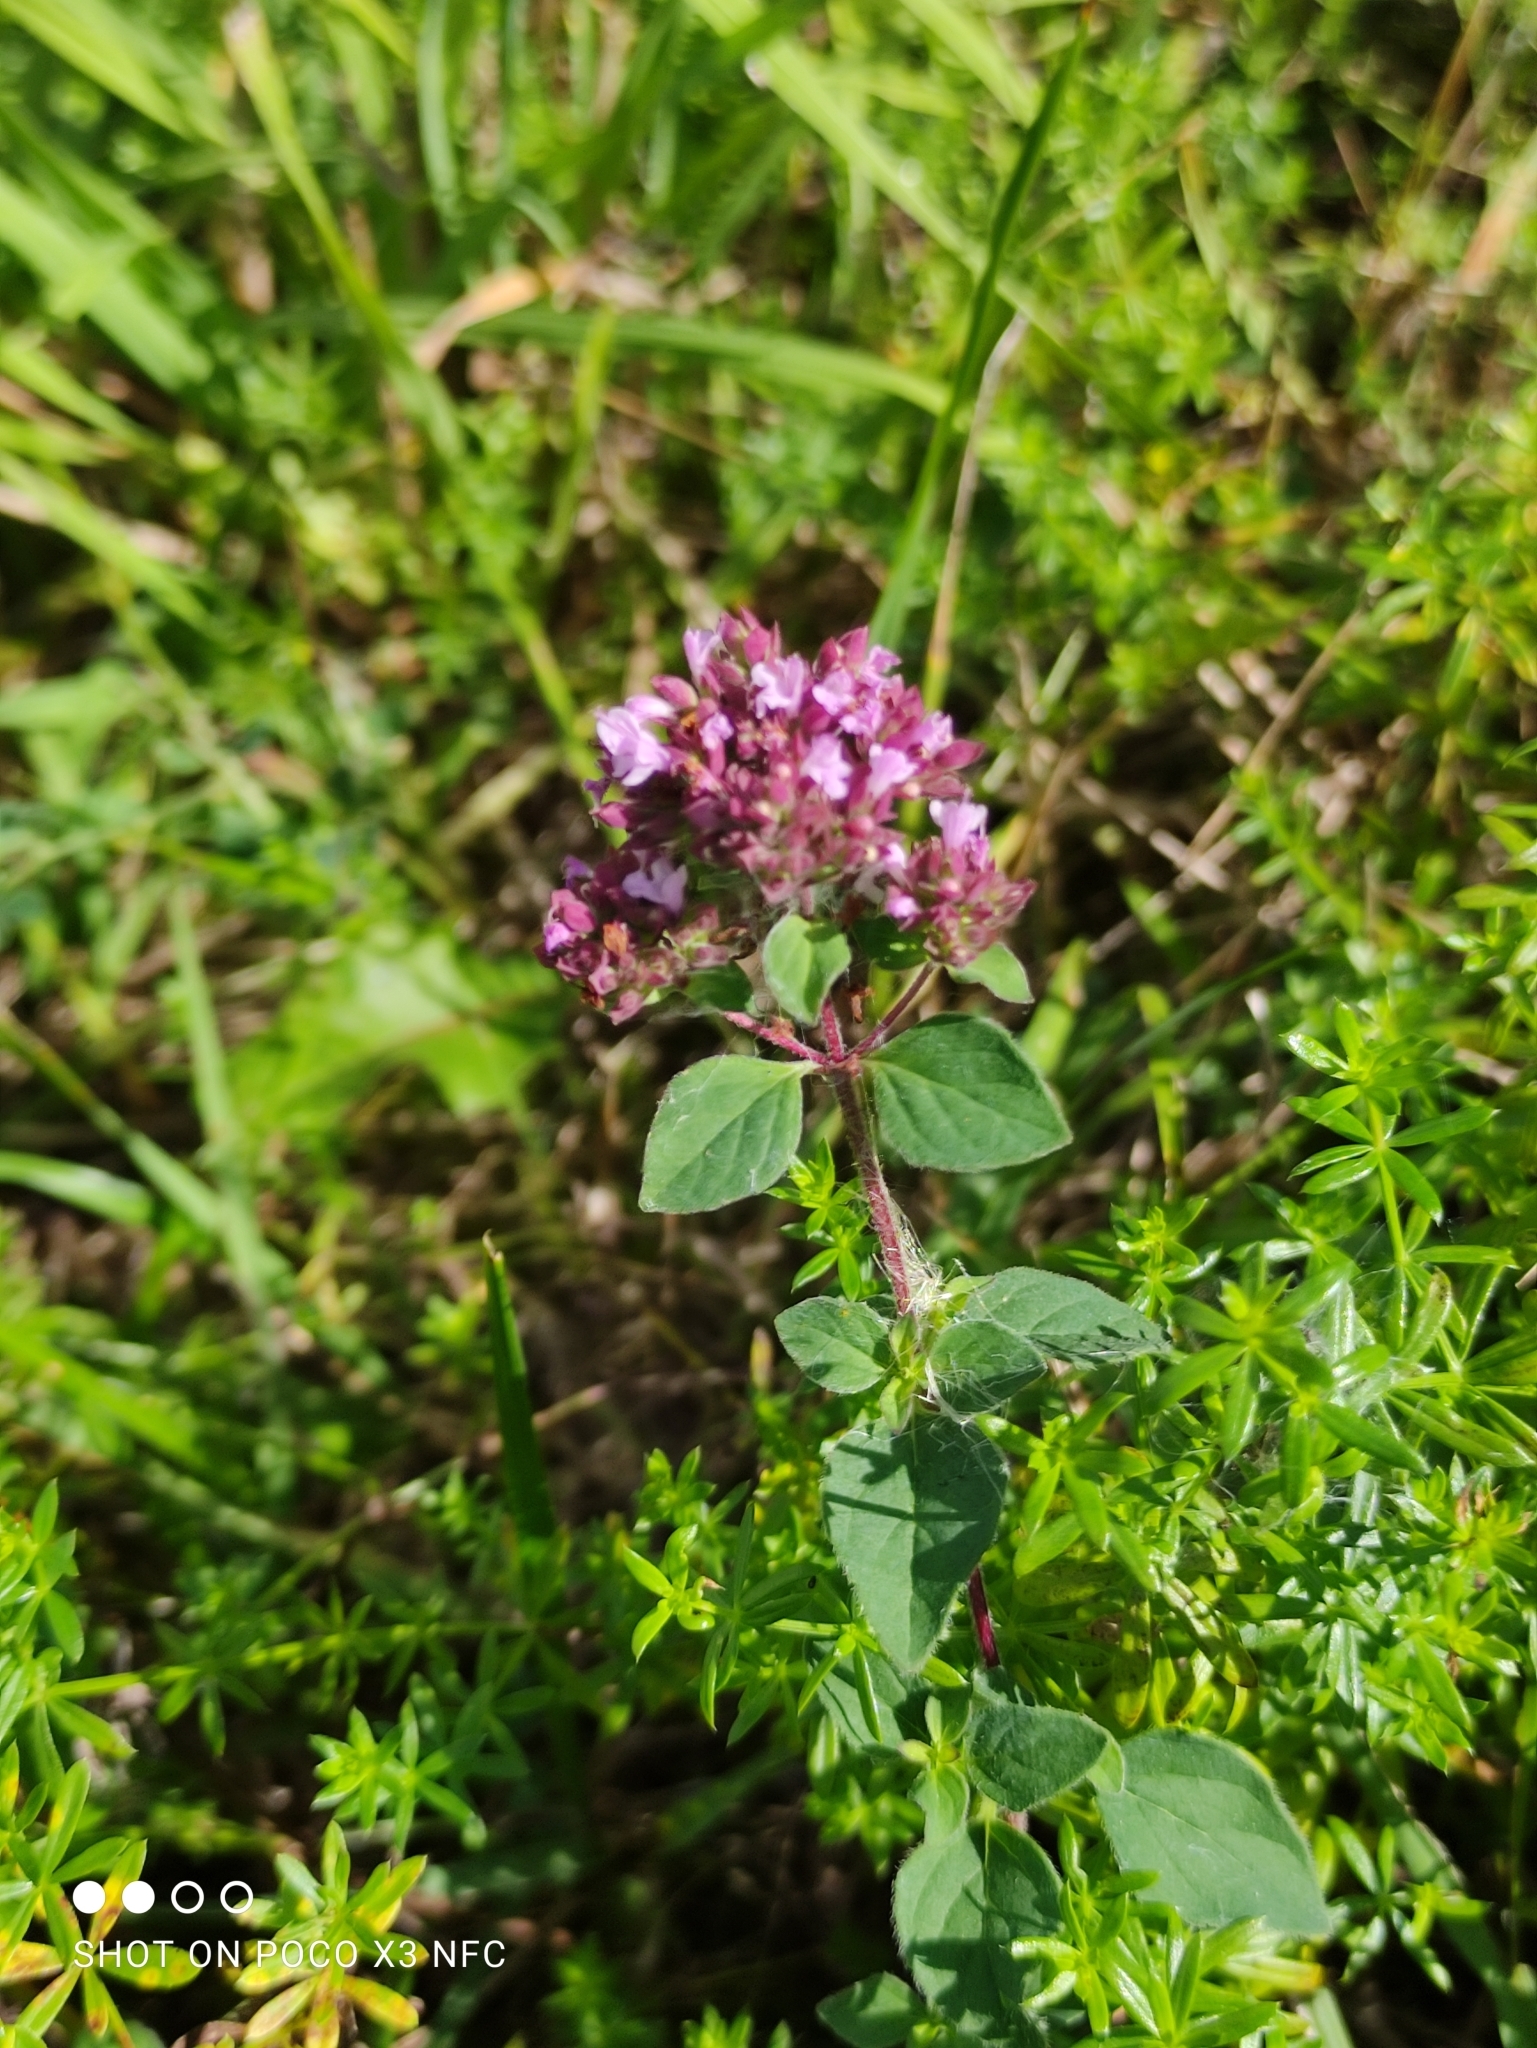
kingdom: Plantae
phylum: Tracheophyta
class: Magnoliopsida
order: Lamiales
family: Lamiaceae
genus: Origanum
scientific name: Origanum vulgare
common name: Wild marjoram
